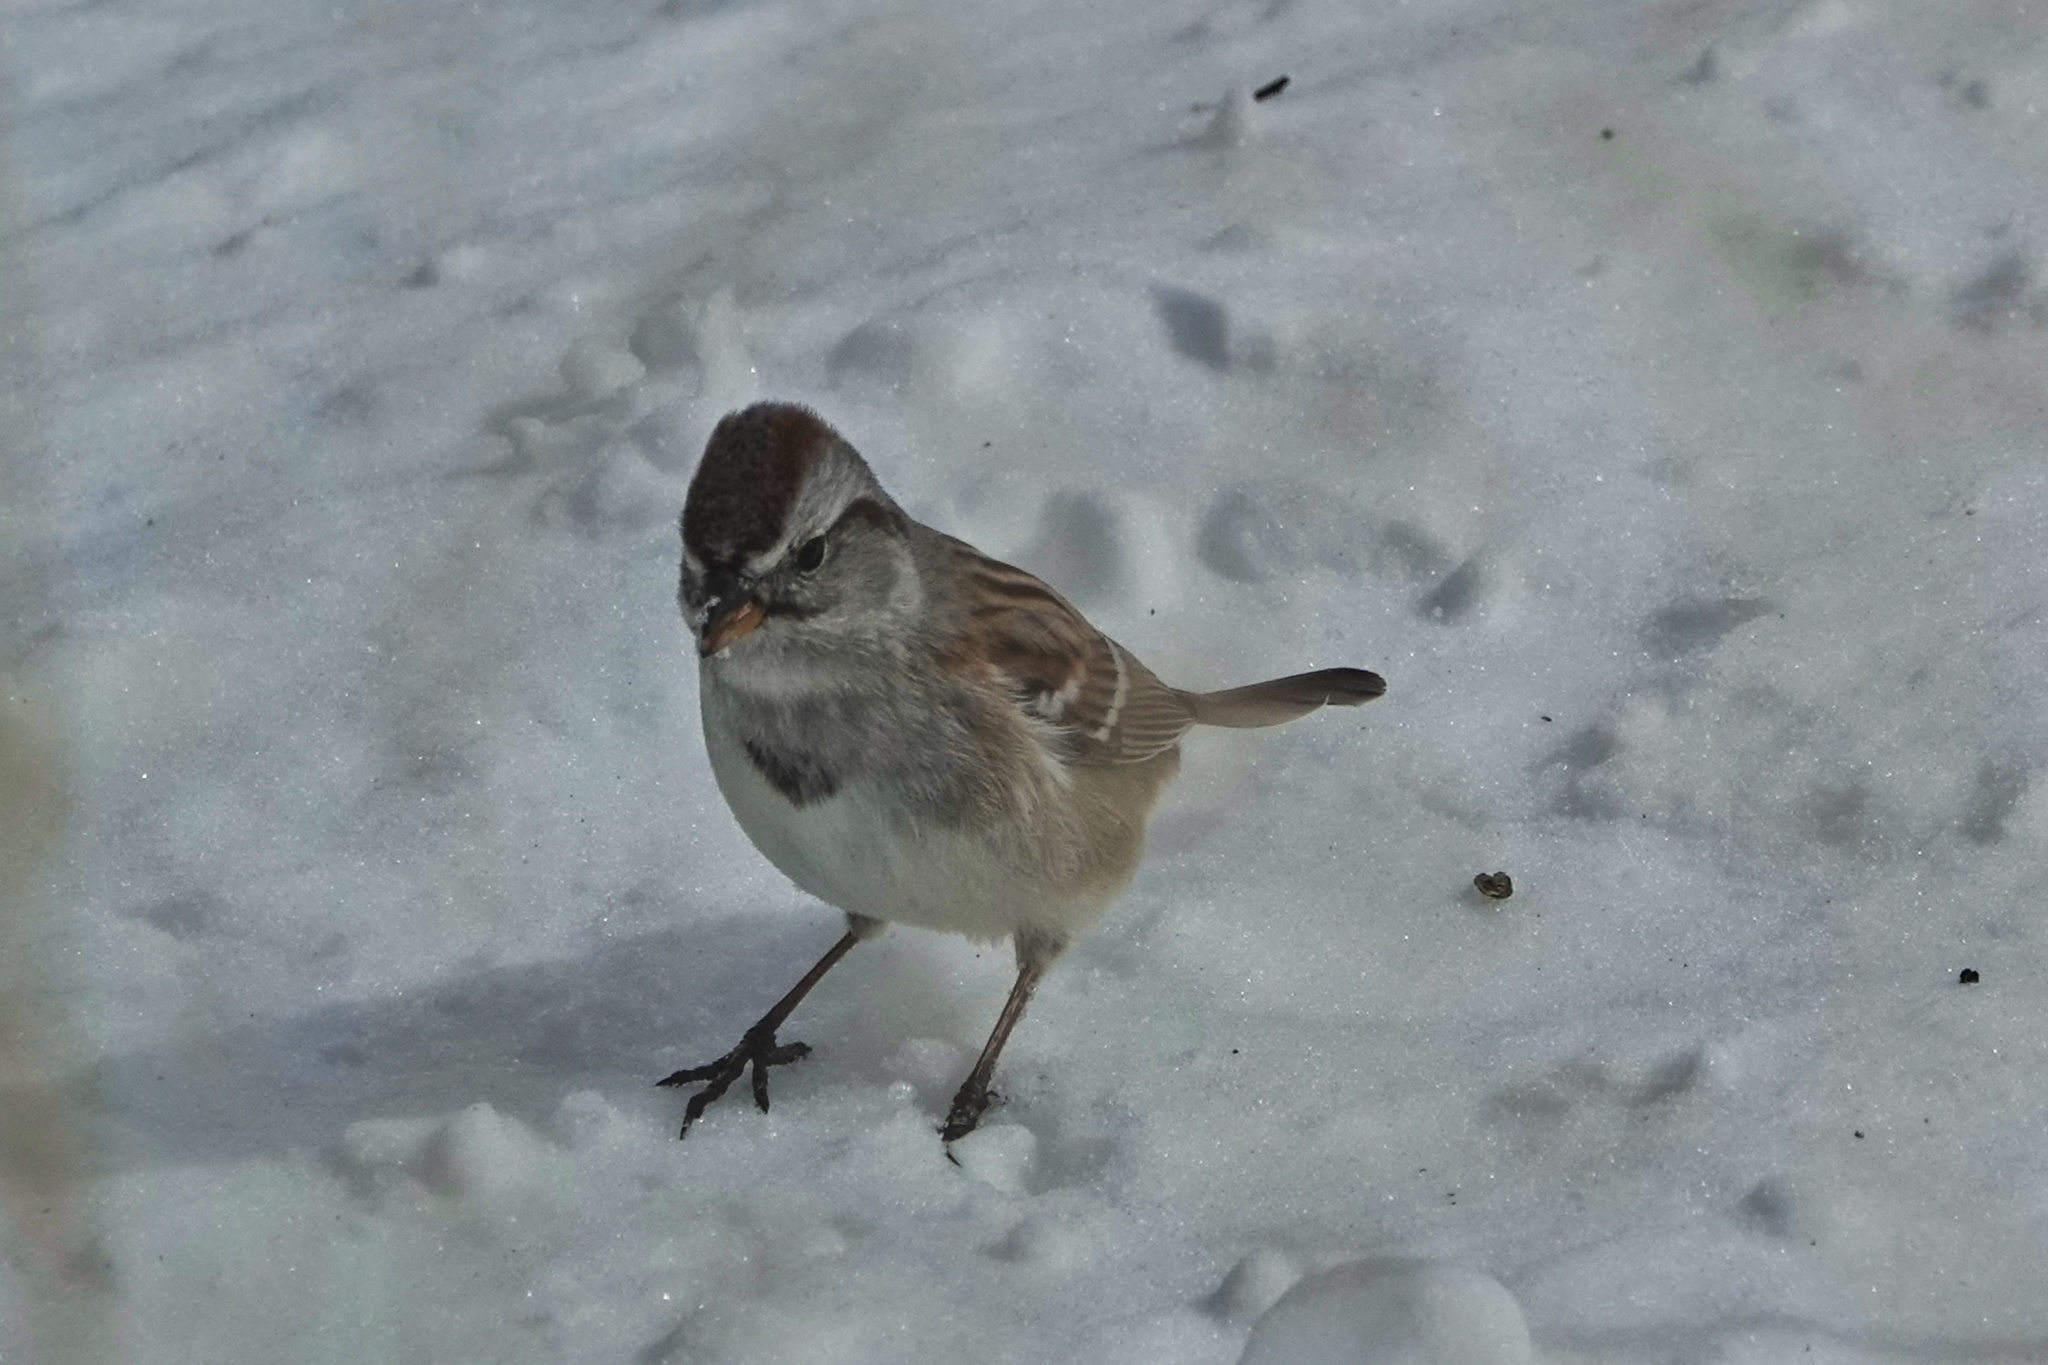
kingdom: Animalia
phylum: Chordata
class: Aves
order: Passeriformes
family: Passerellidae
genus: Spizelloides
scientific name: Spizelloides arborea
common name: American tree sparrow
